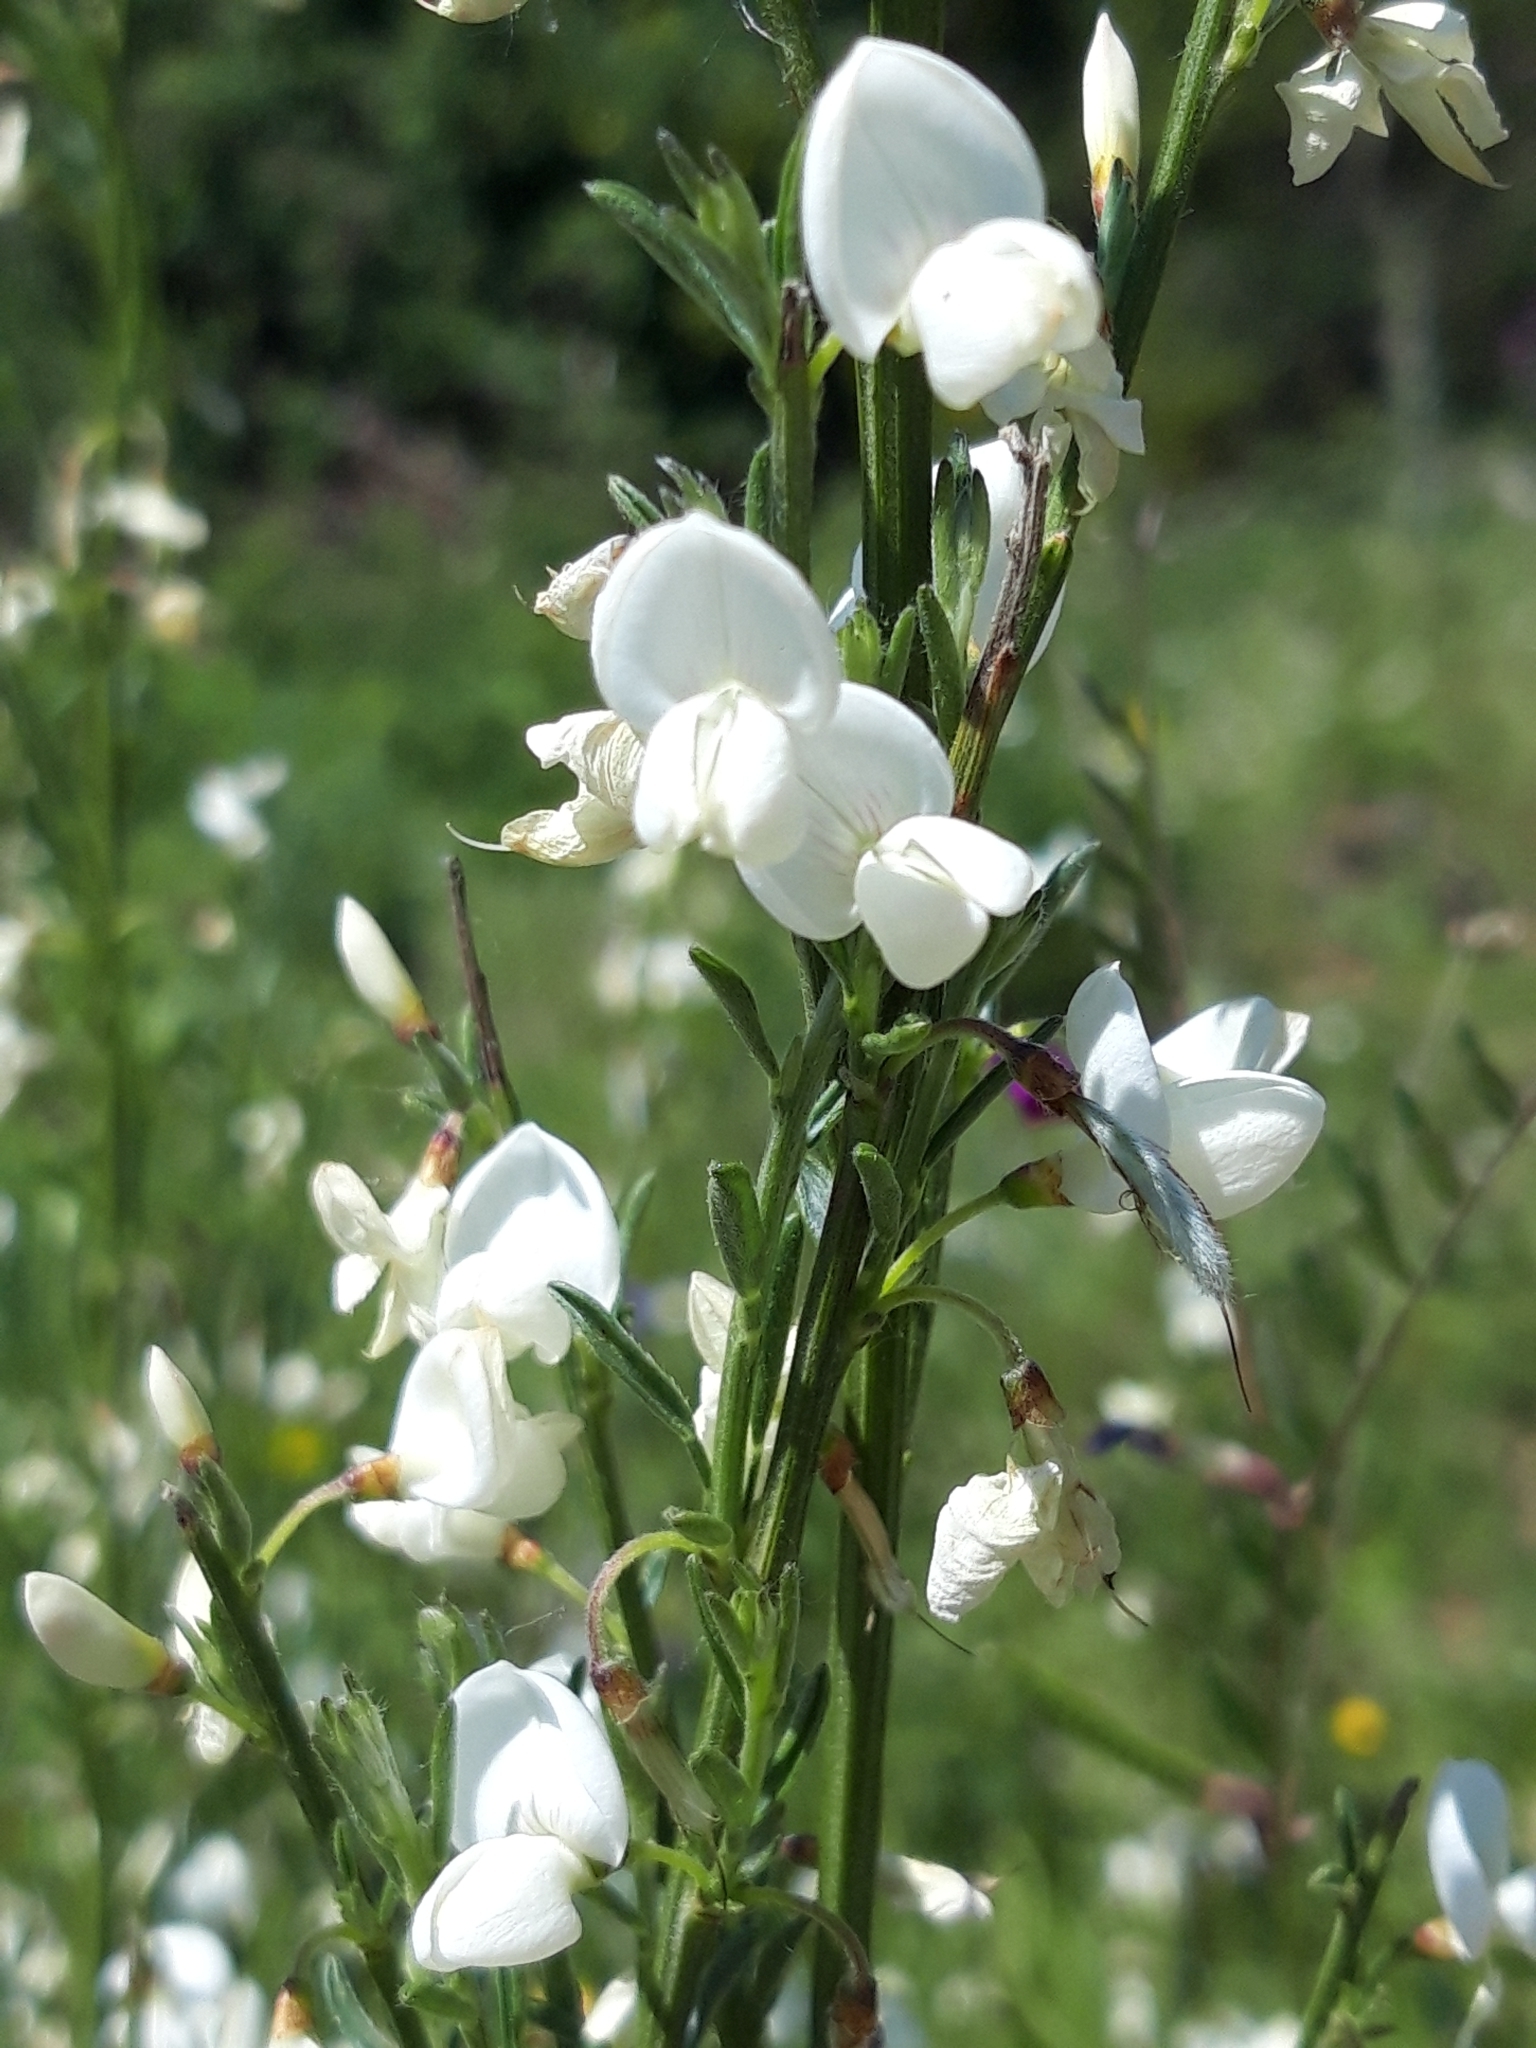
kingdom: Plantae
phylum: Tracheophyta
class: Magnoliopsida
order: Fabales
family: Fabaceae
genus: Cytisus
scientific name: Cytisus multiflorus
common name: White broom
